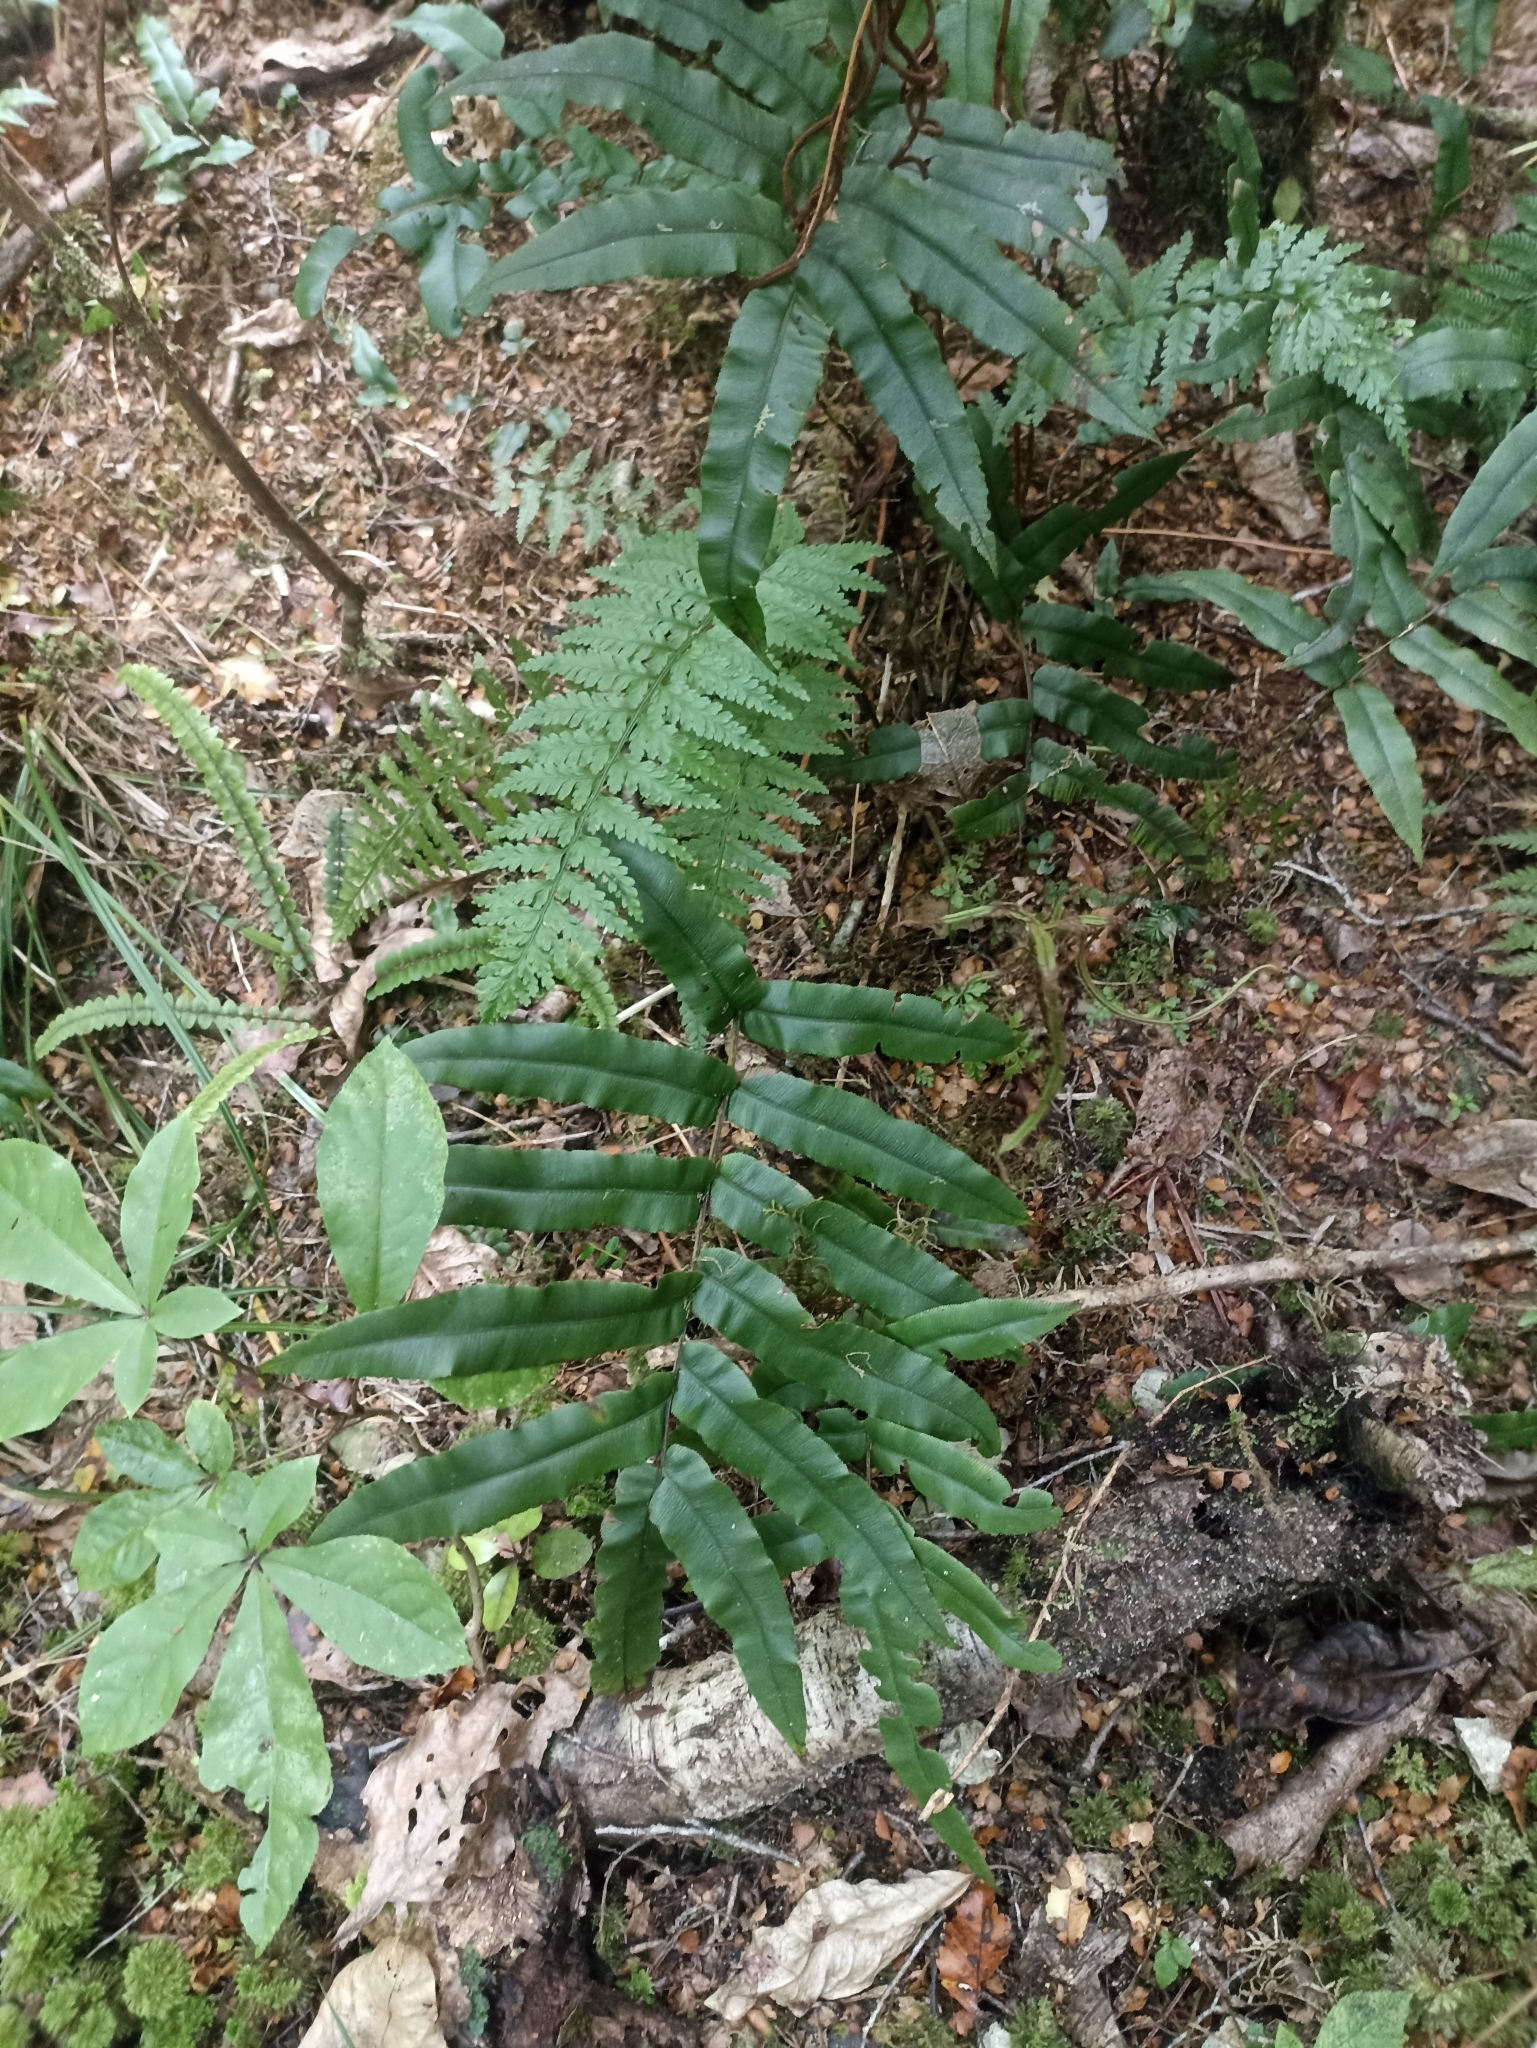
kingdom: Plantae
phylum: Tracheophyta
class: Polypodiopsida
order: Polypodiales
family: Blechnaceae
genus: Parablechnum
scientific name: Parablechnum procerum
